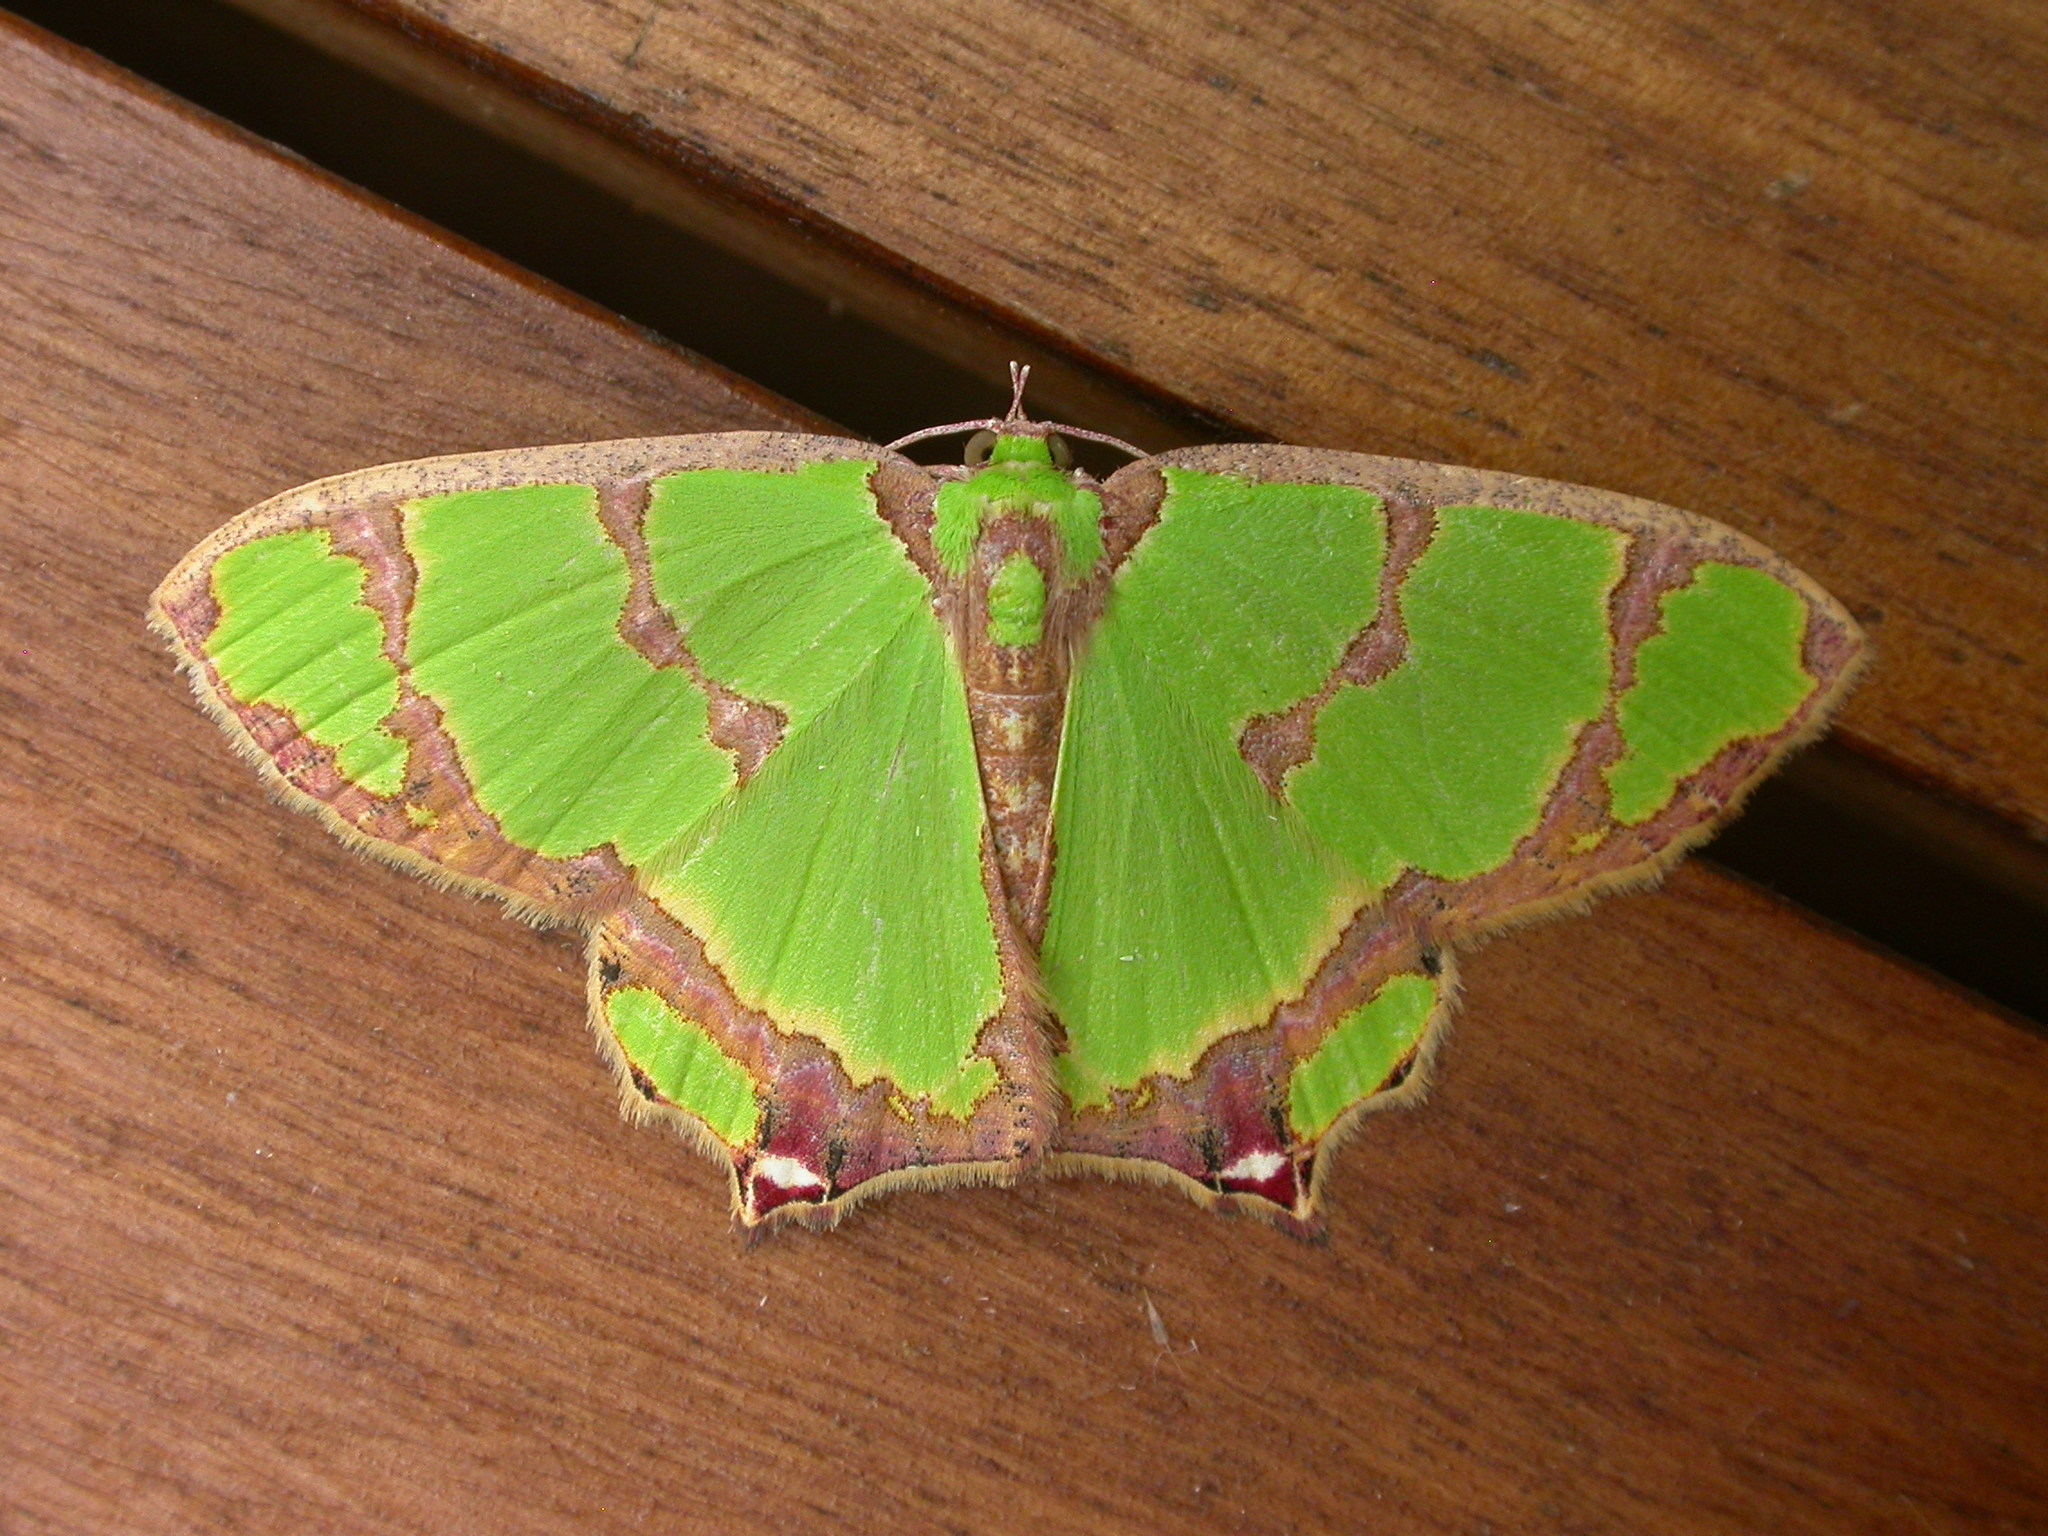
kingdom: Animalia
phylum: Arthropoda
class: Insecta
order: Lepidoptera
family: Geometridae
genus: Agathia
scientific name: Agathia pisina
